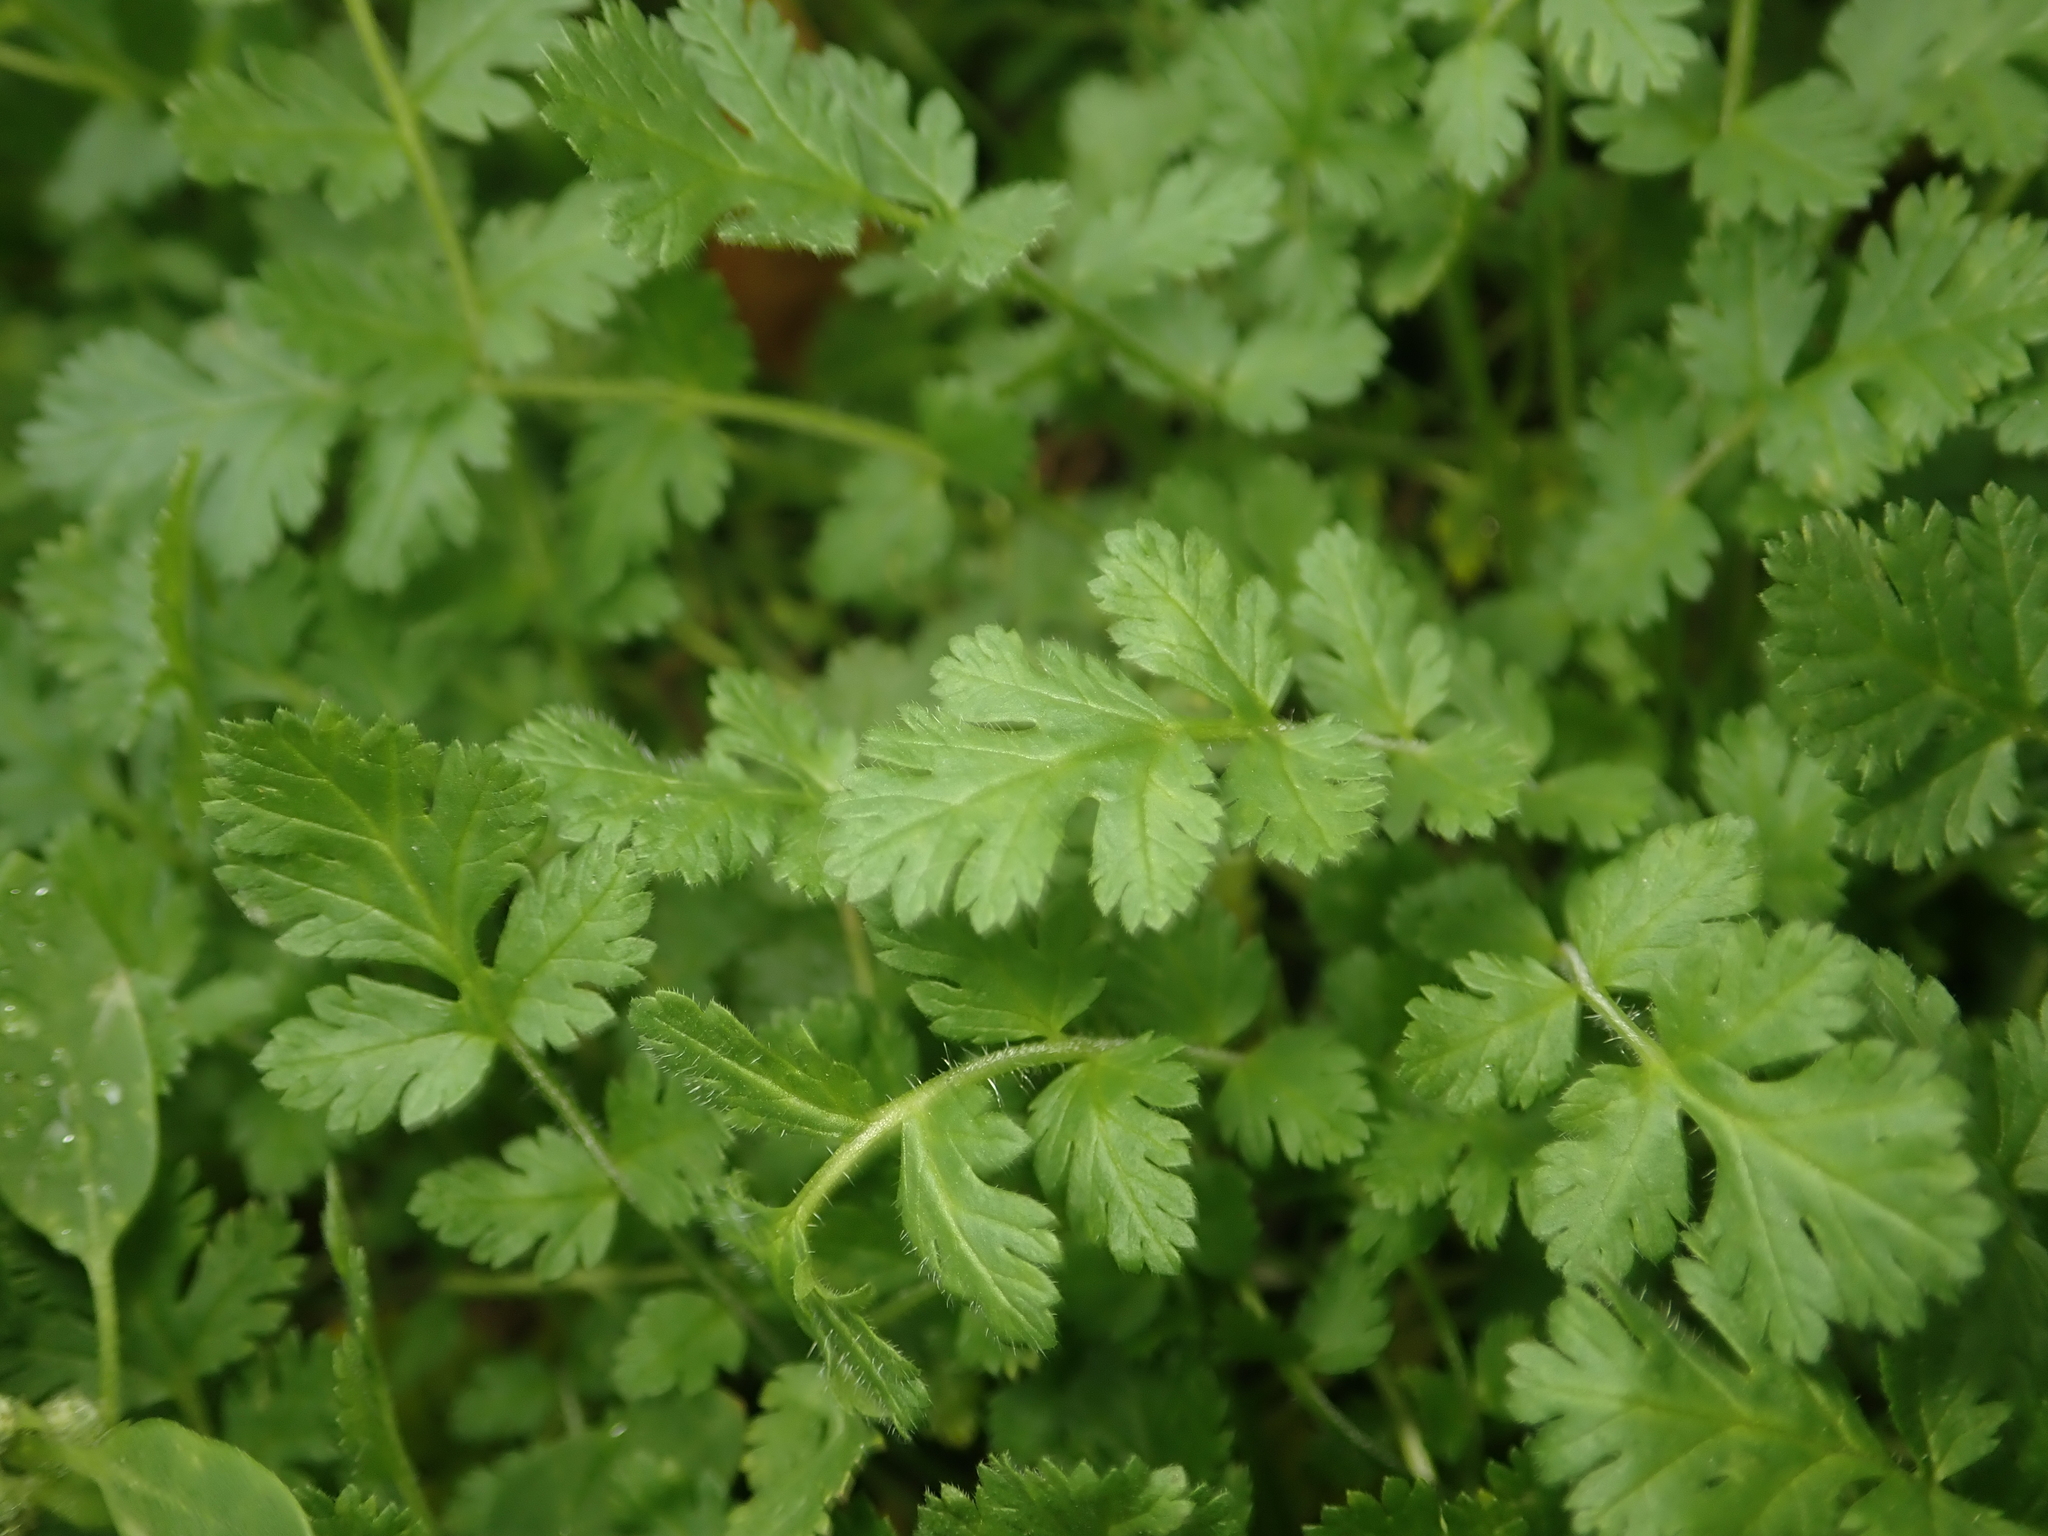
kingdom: Plantae
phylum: Tracheophyta
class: Magnoliopsida
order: Geraniales
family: Geraniaceae
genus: Erodium
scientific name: Erodium cicutarium
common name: Common stork's-bill
